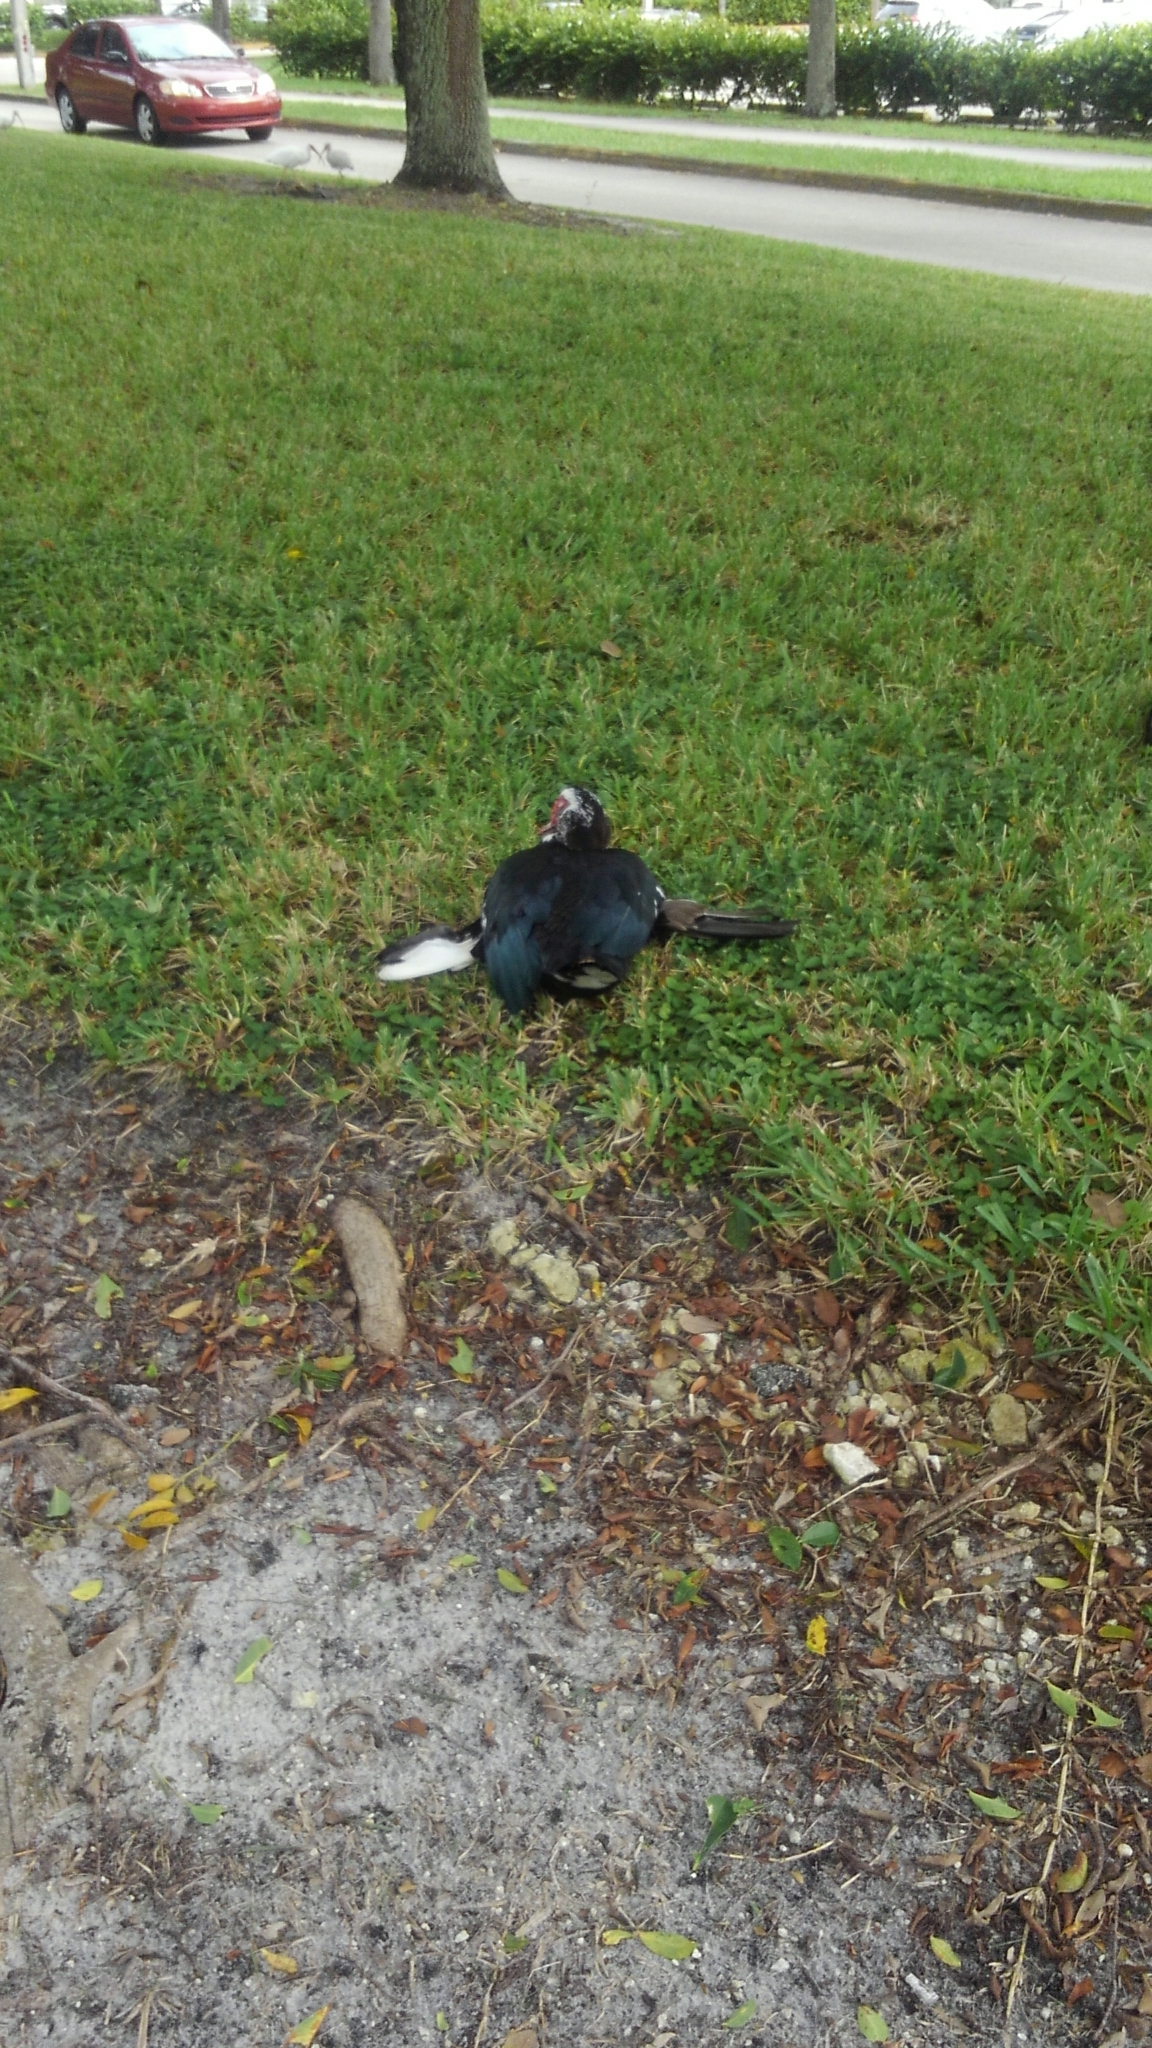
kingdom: Animalia
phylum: Chordata
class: Aves
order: Anseriformes
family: Anatidae
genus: Cairina
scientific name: Cairina moschata
